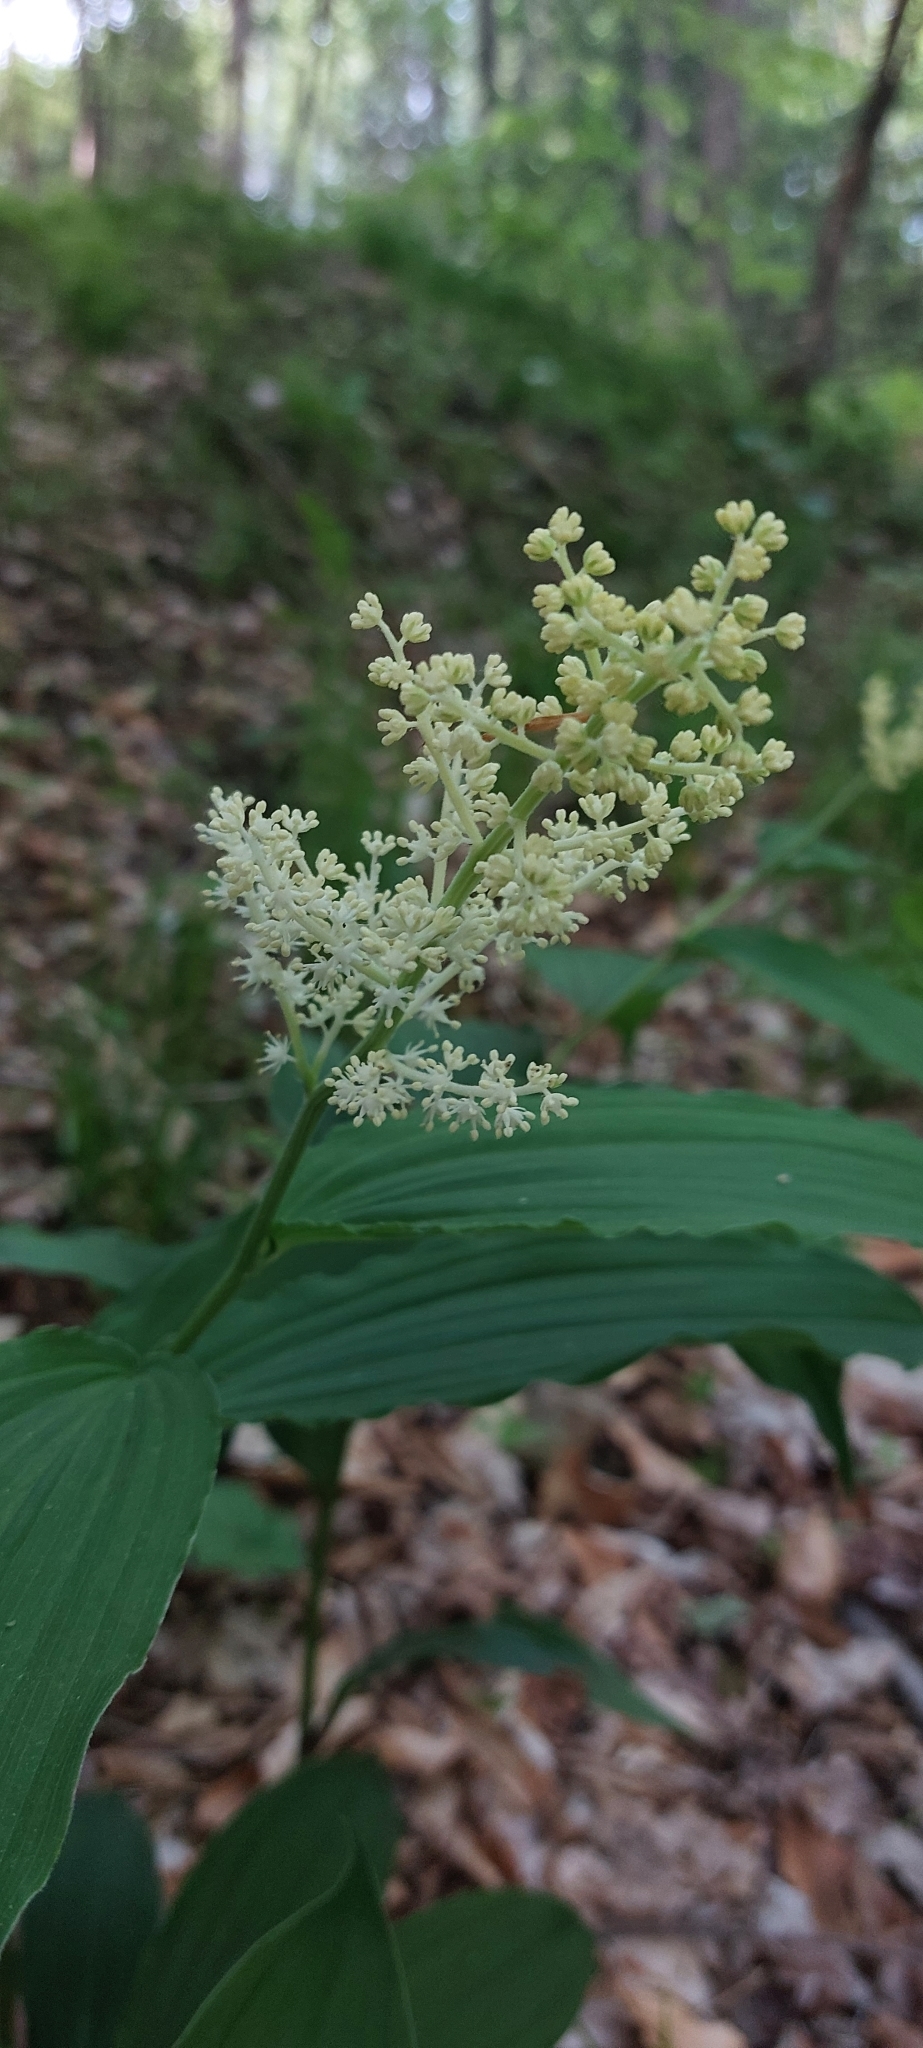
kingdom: Plantae
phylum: Tracheophyta
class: Liliopsida
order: Asparagales
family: Asparagaceae
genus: Maianthemum
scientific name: Maianthemum racemosum
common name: False spikenard
